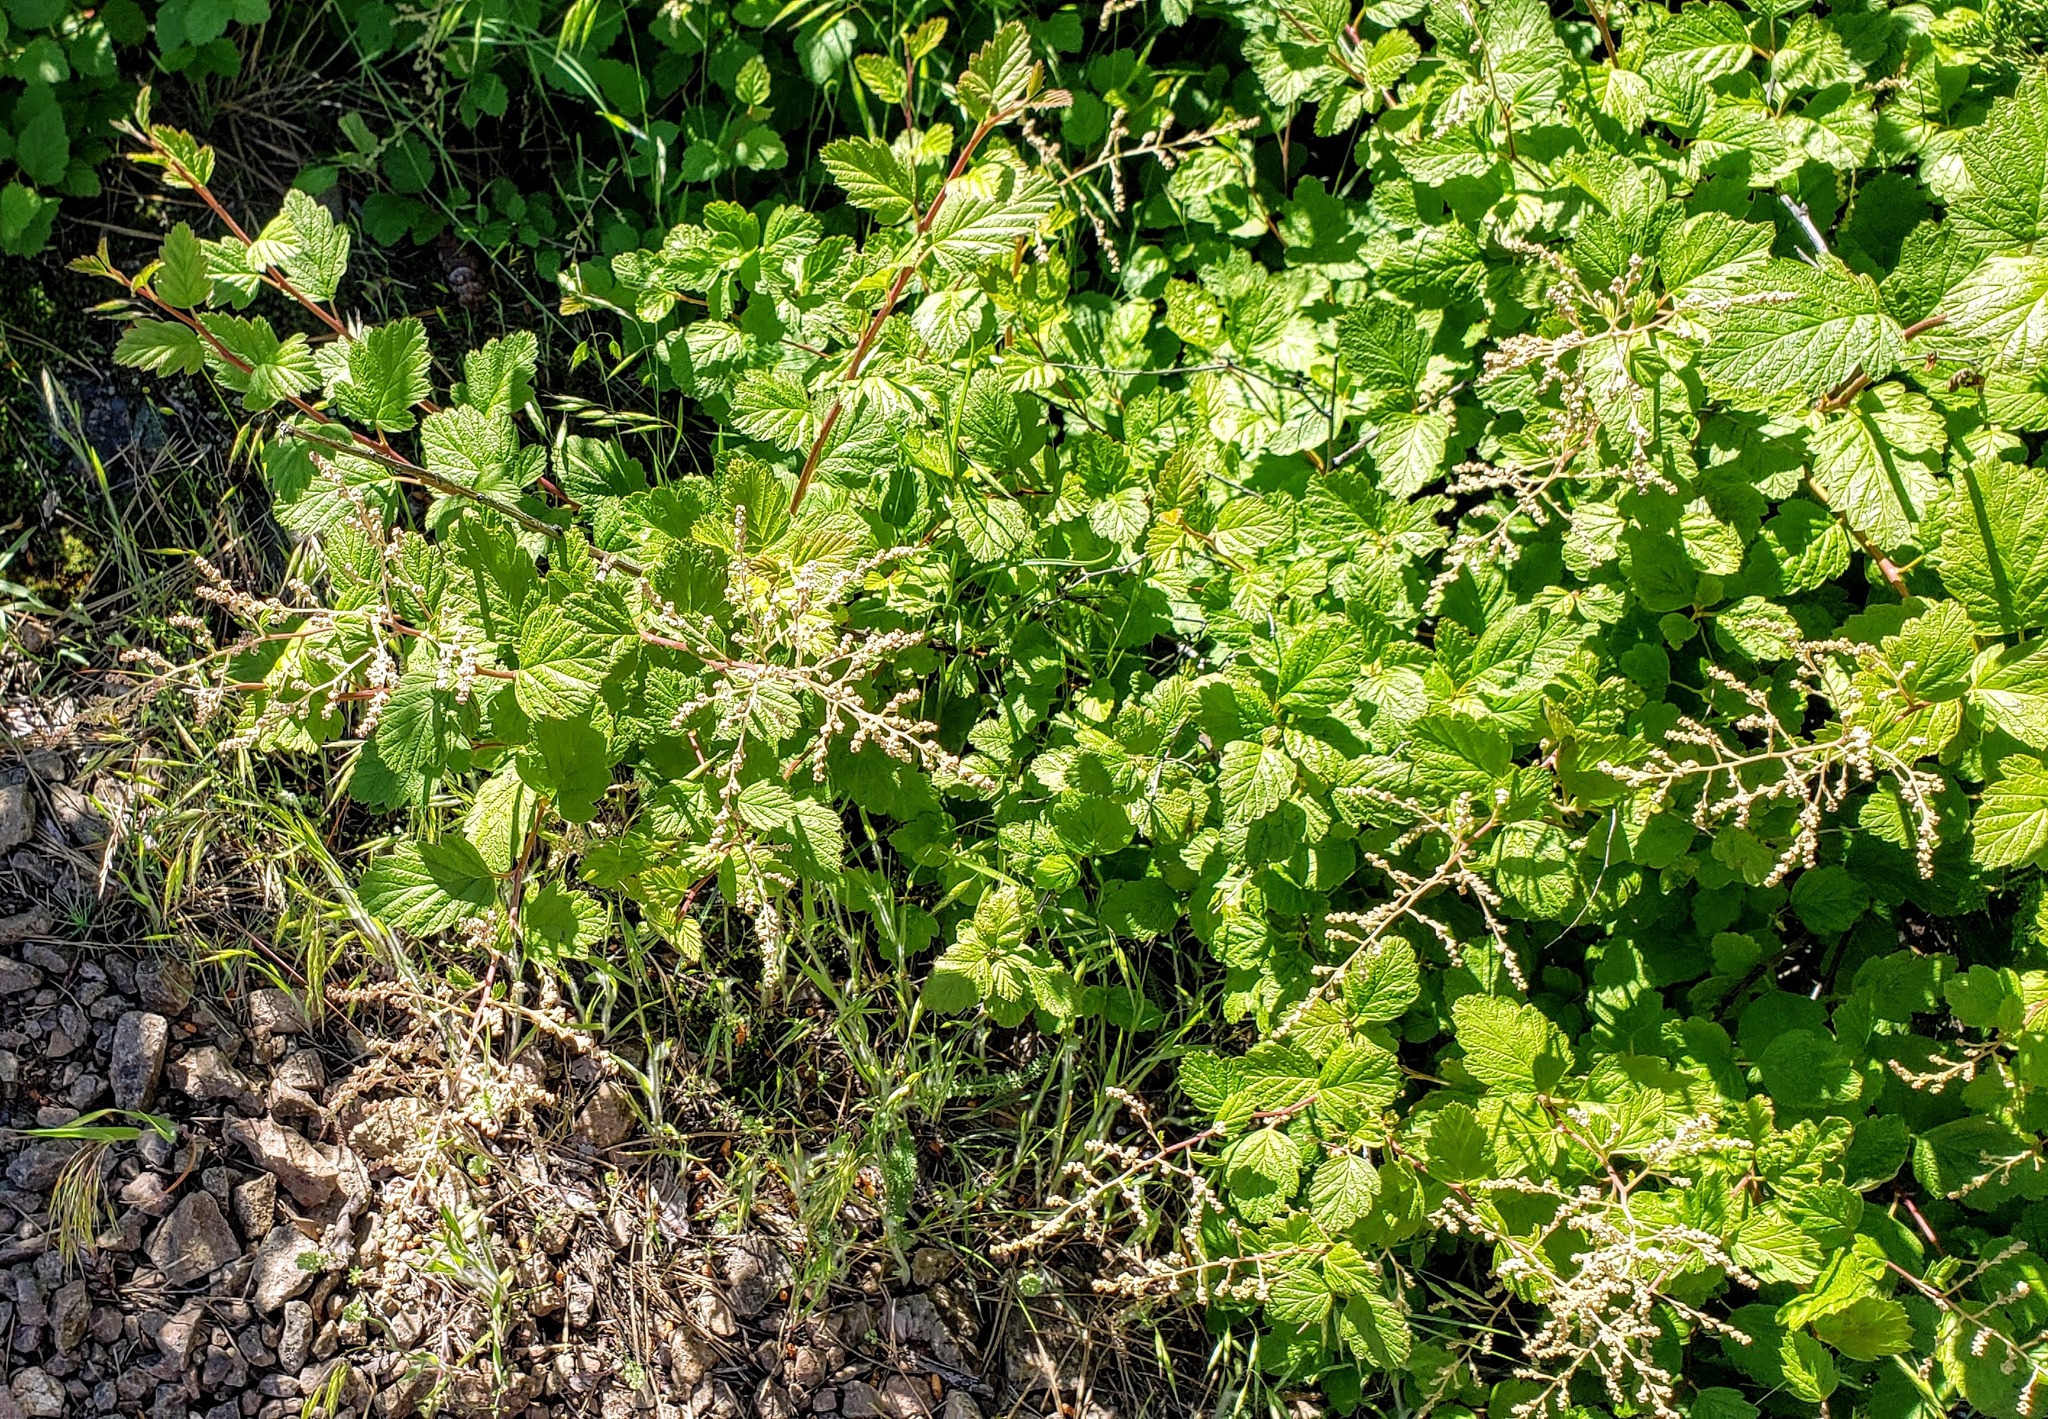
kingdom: Plantae
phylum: Tracheophyta
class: Magnoliopsida
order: Rosales
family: Rosaceae
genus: Holodiscus
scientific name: Holodiscus discolor
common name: Oceanspray
